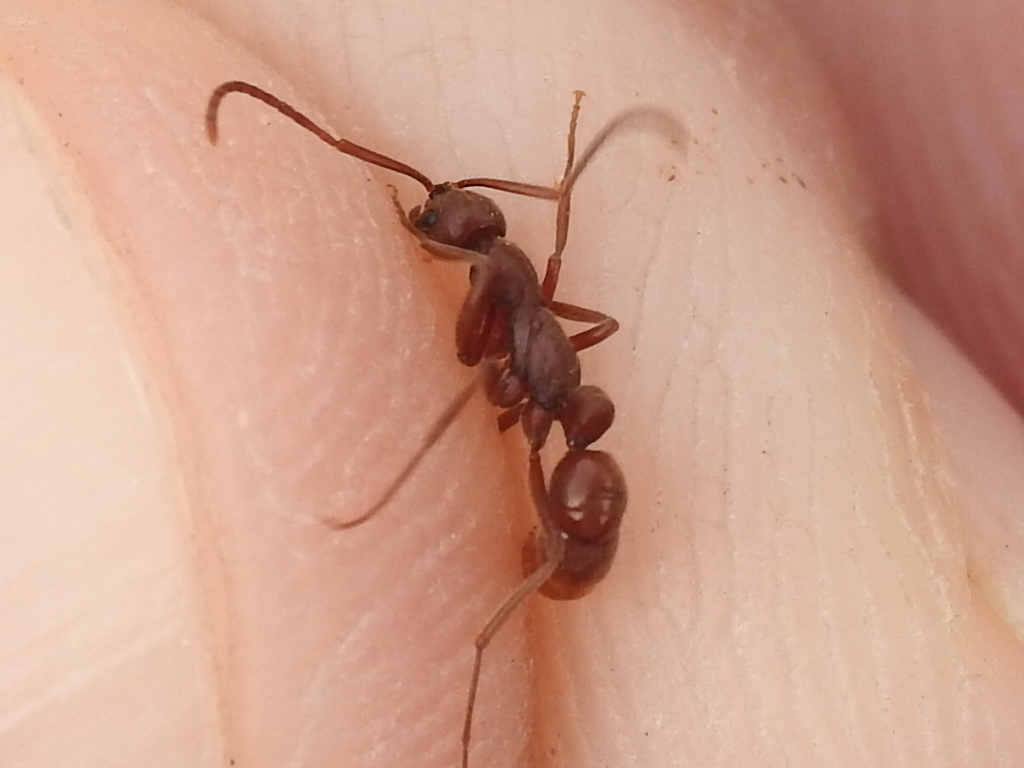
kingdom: Animalia
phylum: Arthropoda
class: Insecta
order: Hymenoptera
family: Formicidae
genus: Leptogenys
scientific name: Leptogenys elongata
